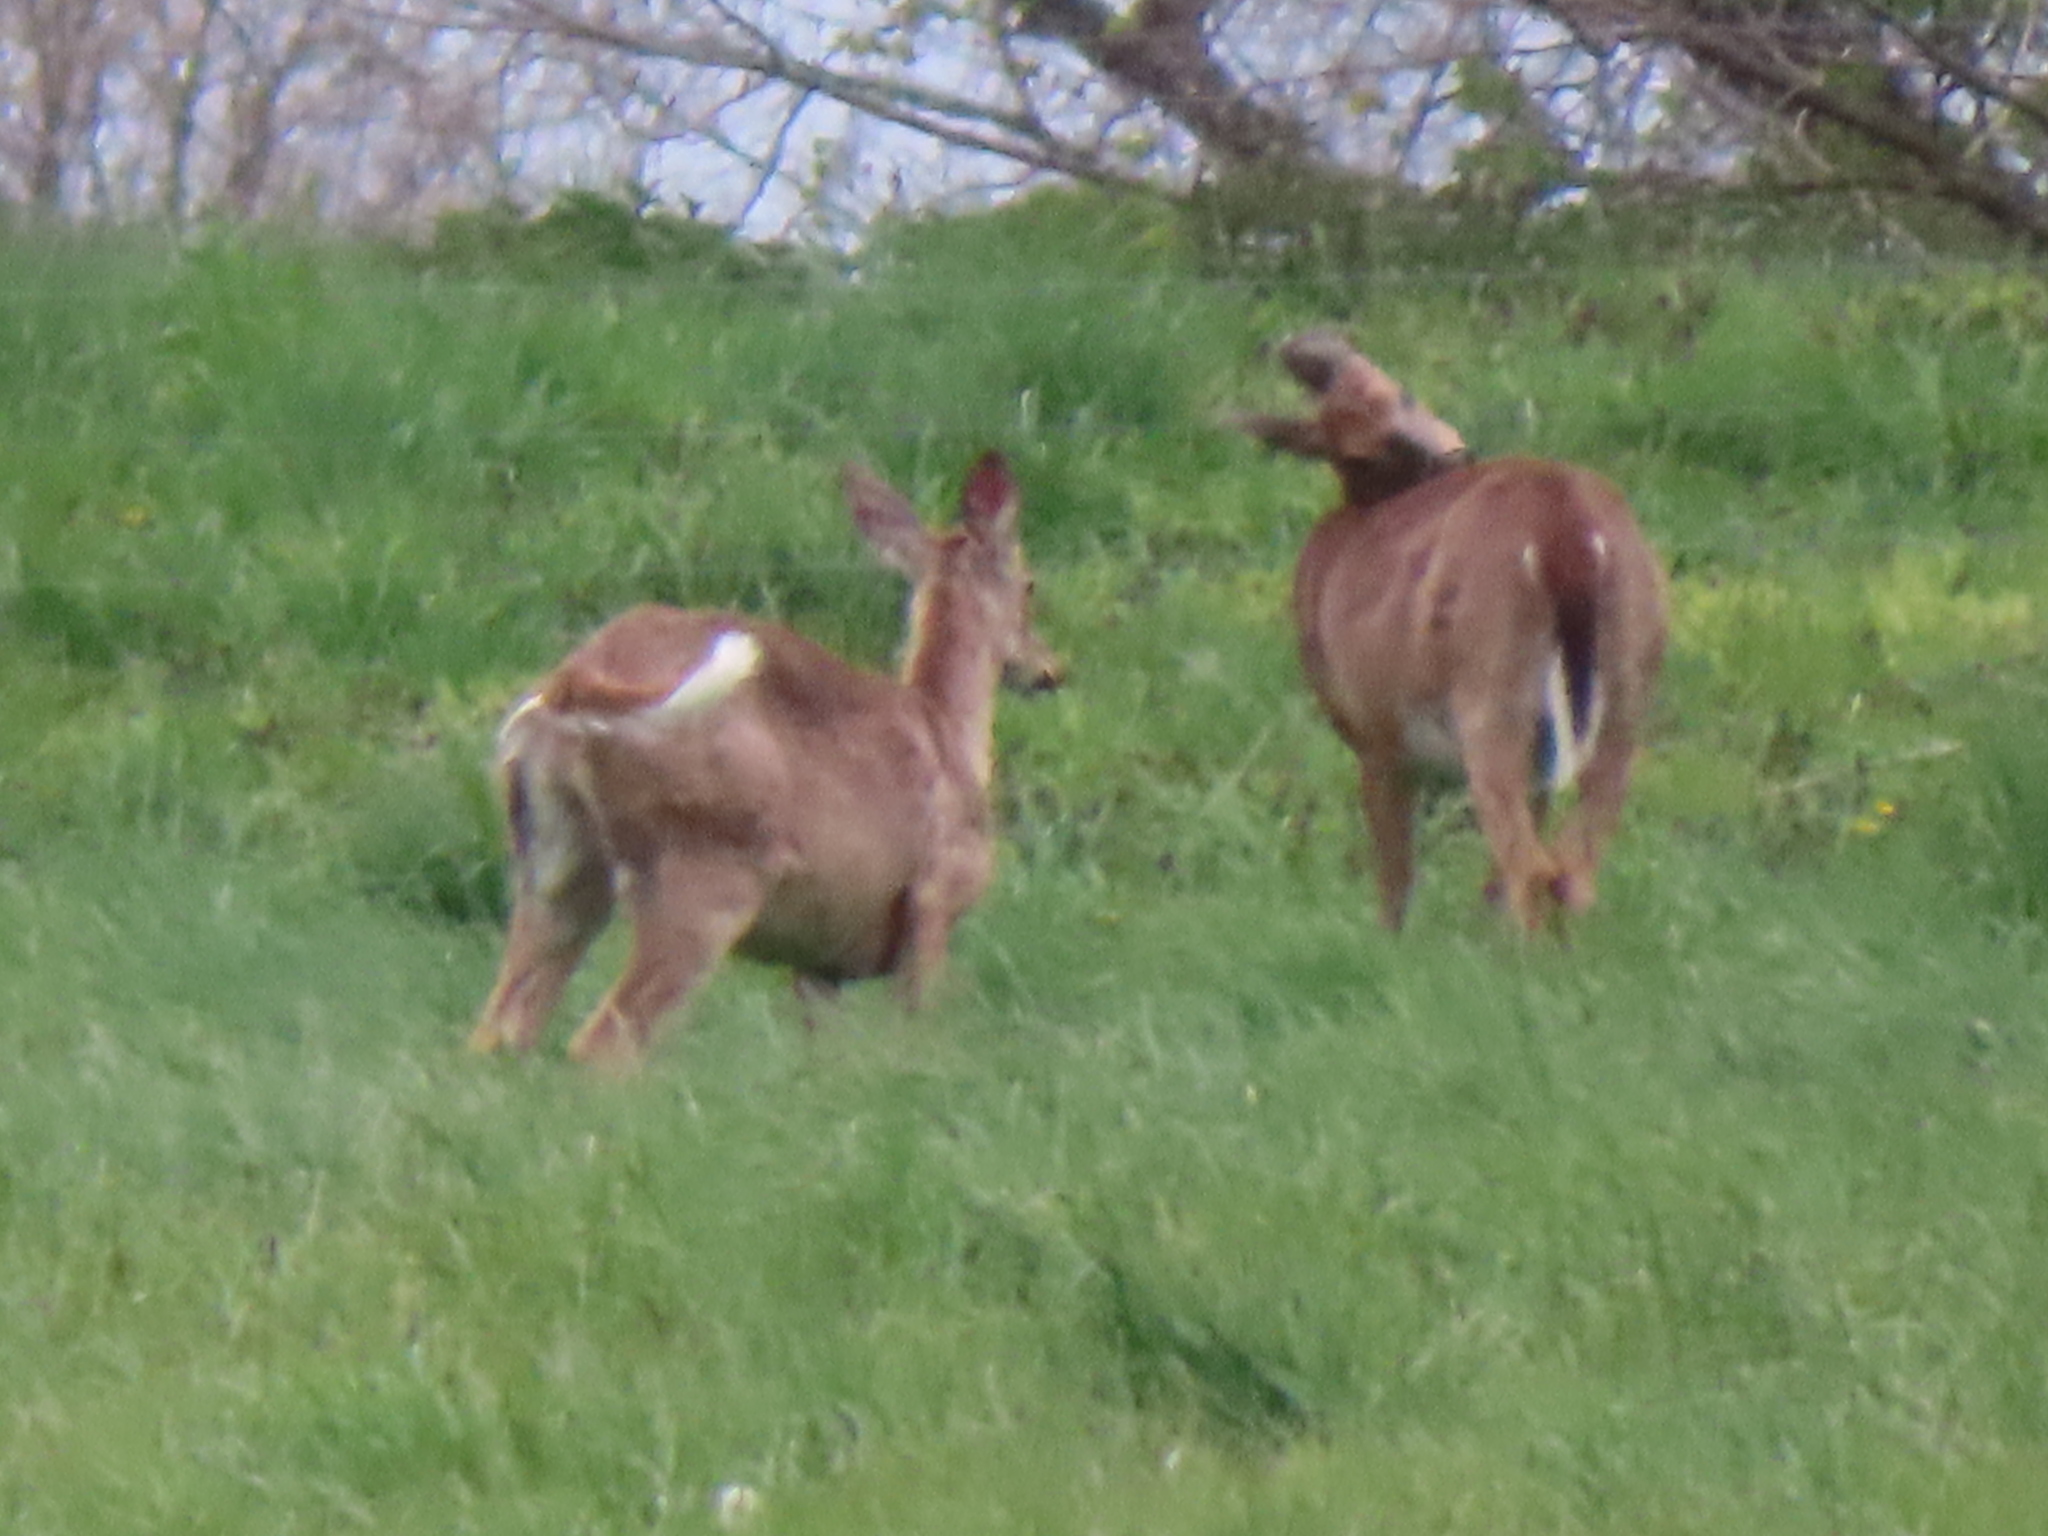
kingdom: Animalia
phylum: Chordata
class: Mammalia
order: Artiodactyla
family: Cervidae
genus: Odocoileus
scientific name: Odocoileus virginianus
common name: White-tailed deer
